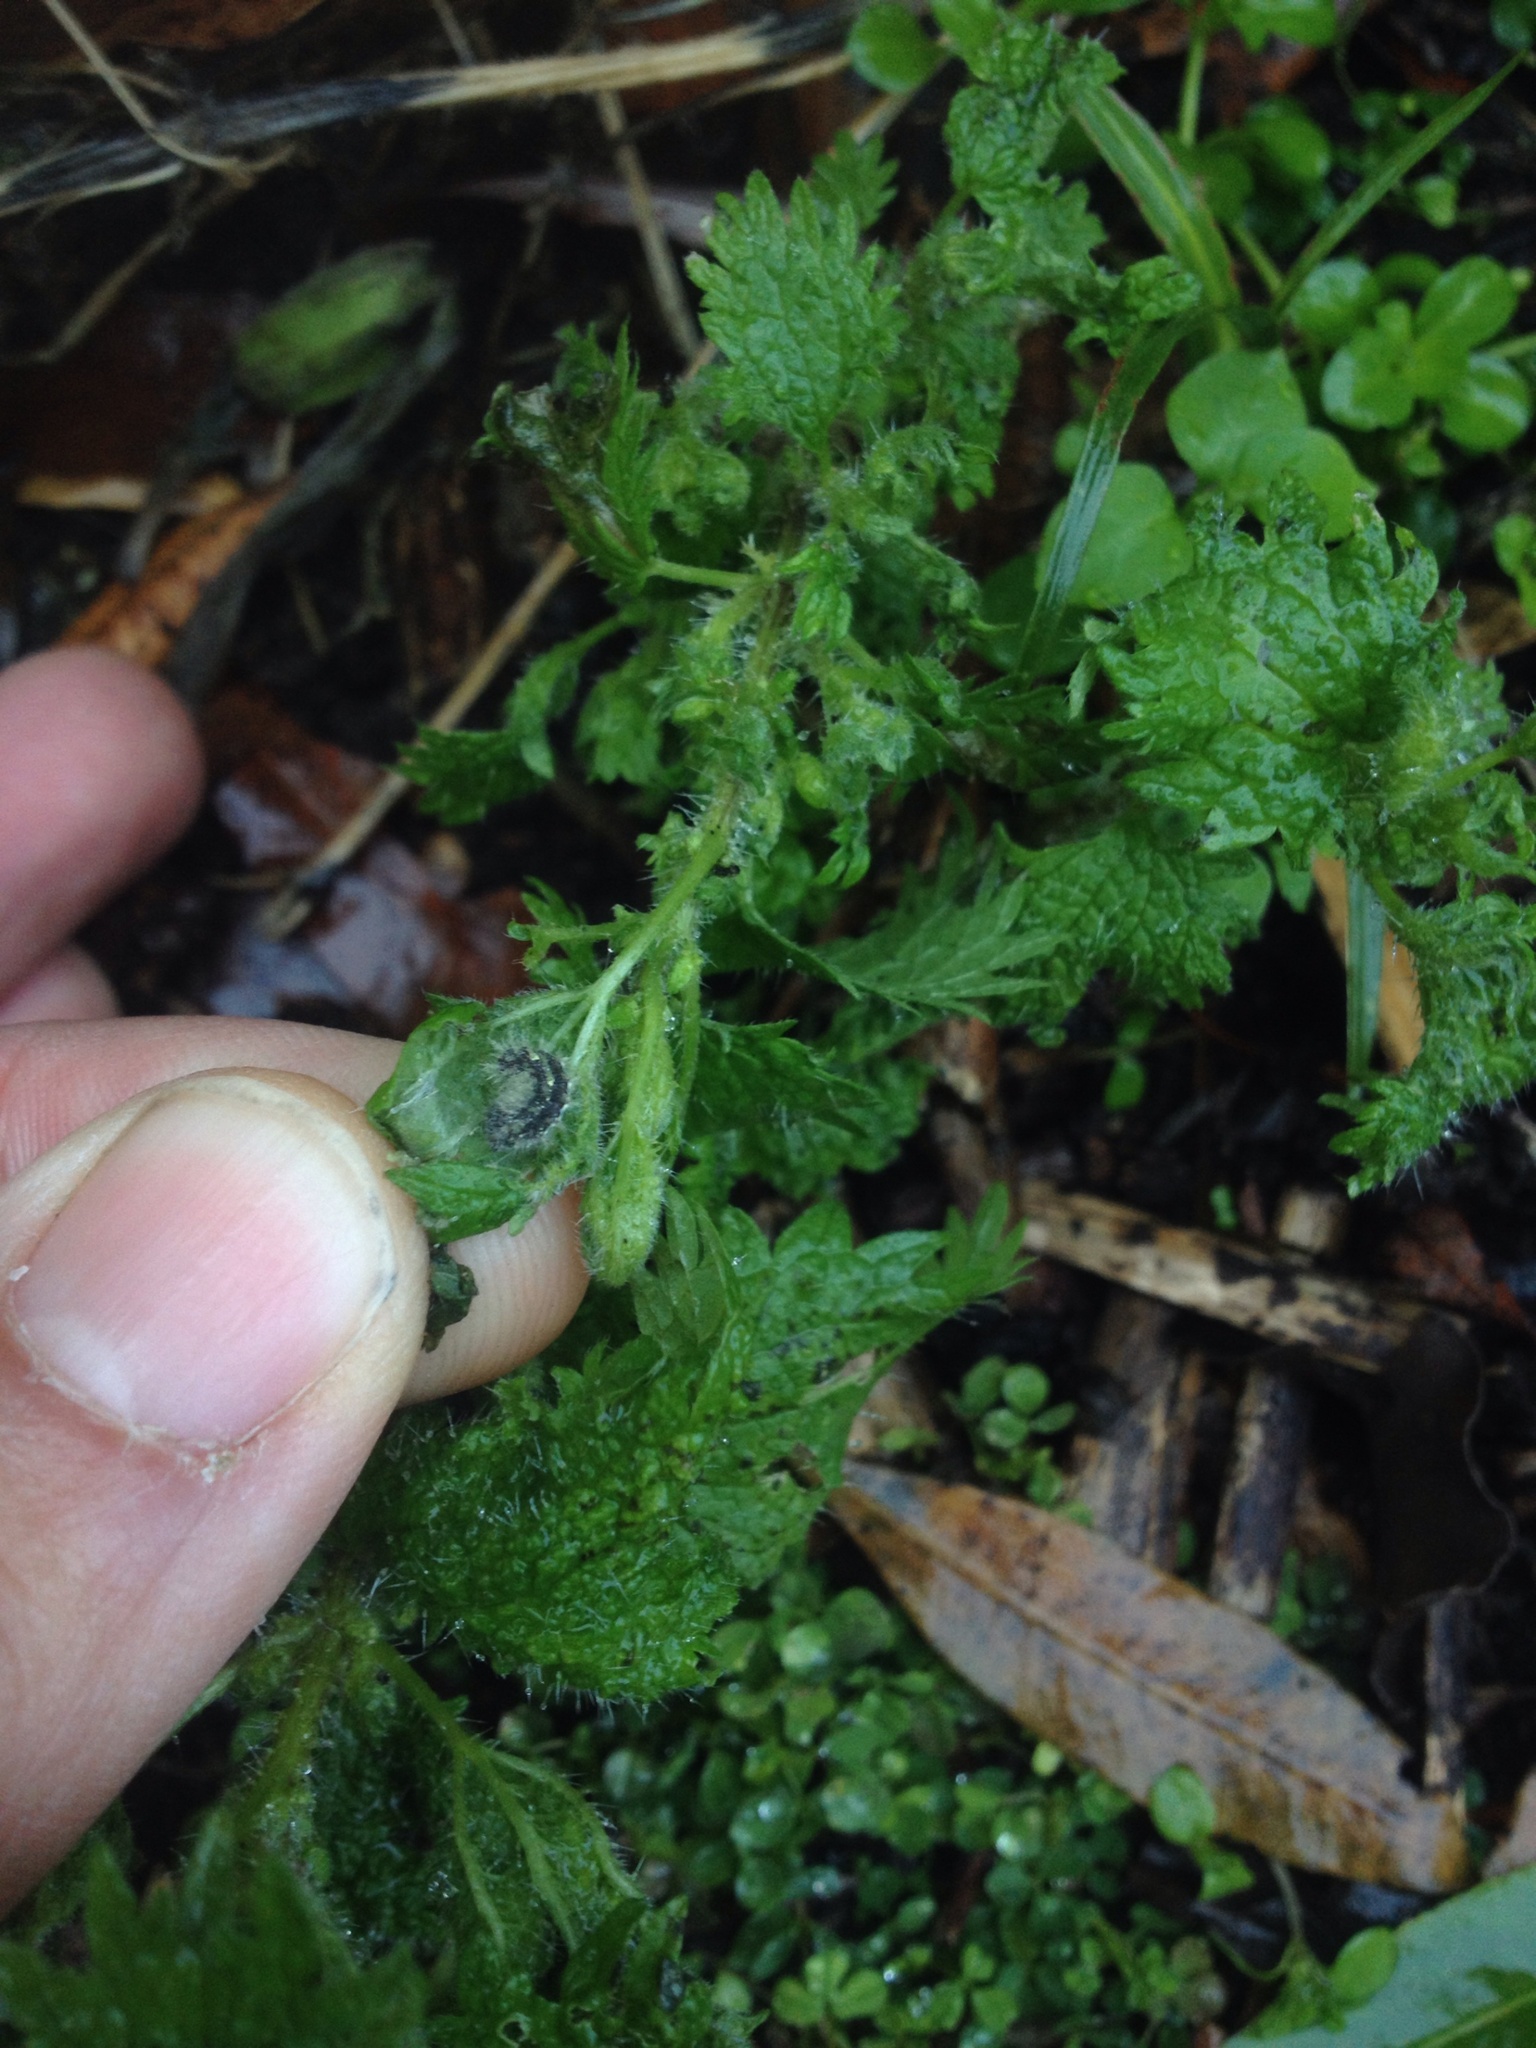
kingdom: Animalia
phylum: Arthropoda
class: Insecta
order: Lepidoptera
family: Nymphalidae
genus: Vanessa
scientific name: Vanessa itea
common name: Yellow admiral
